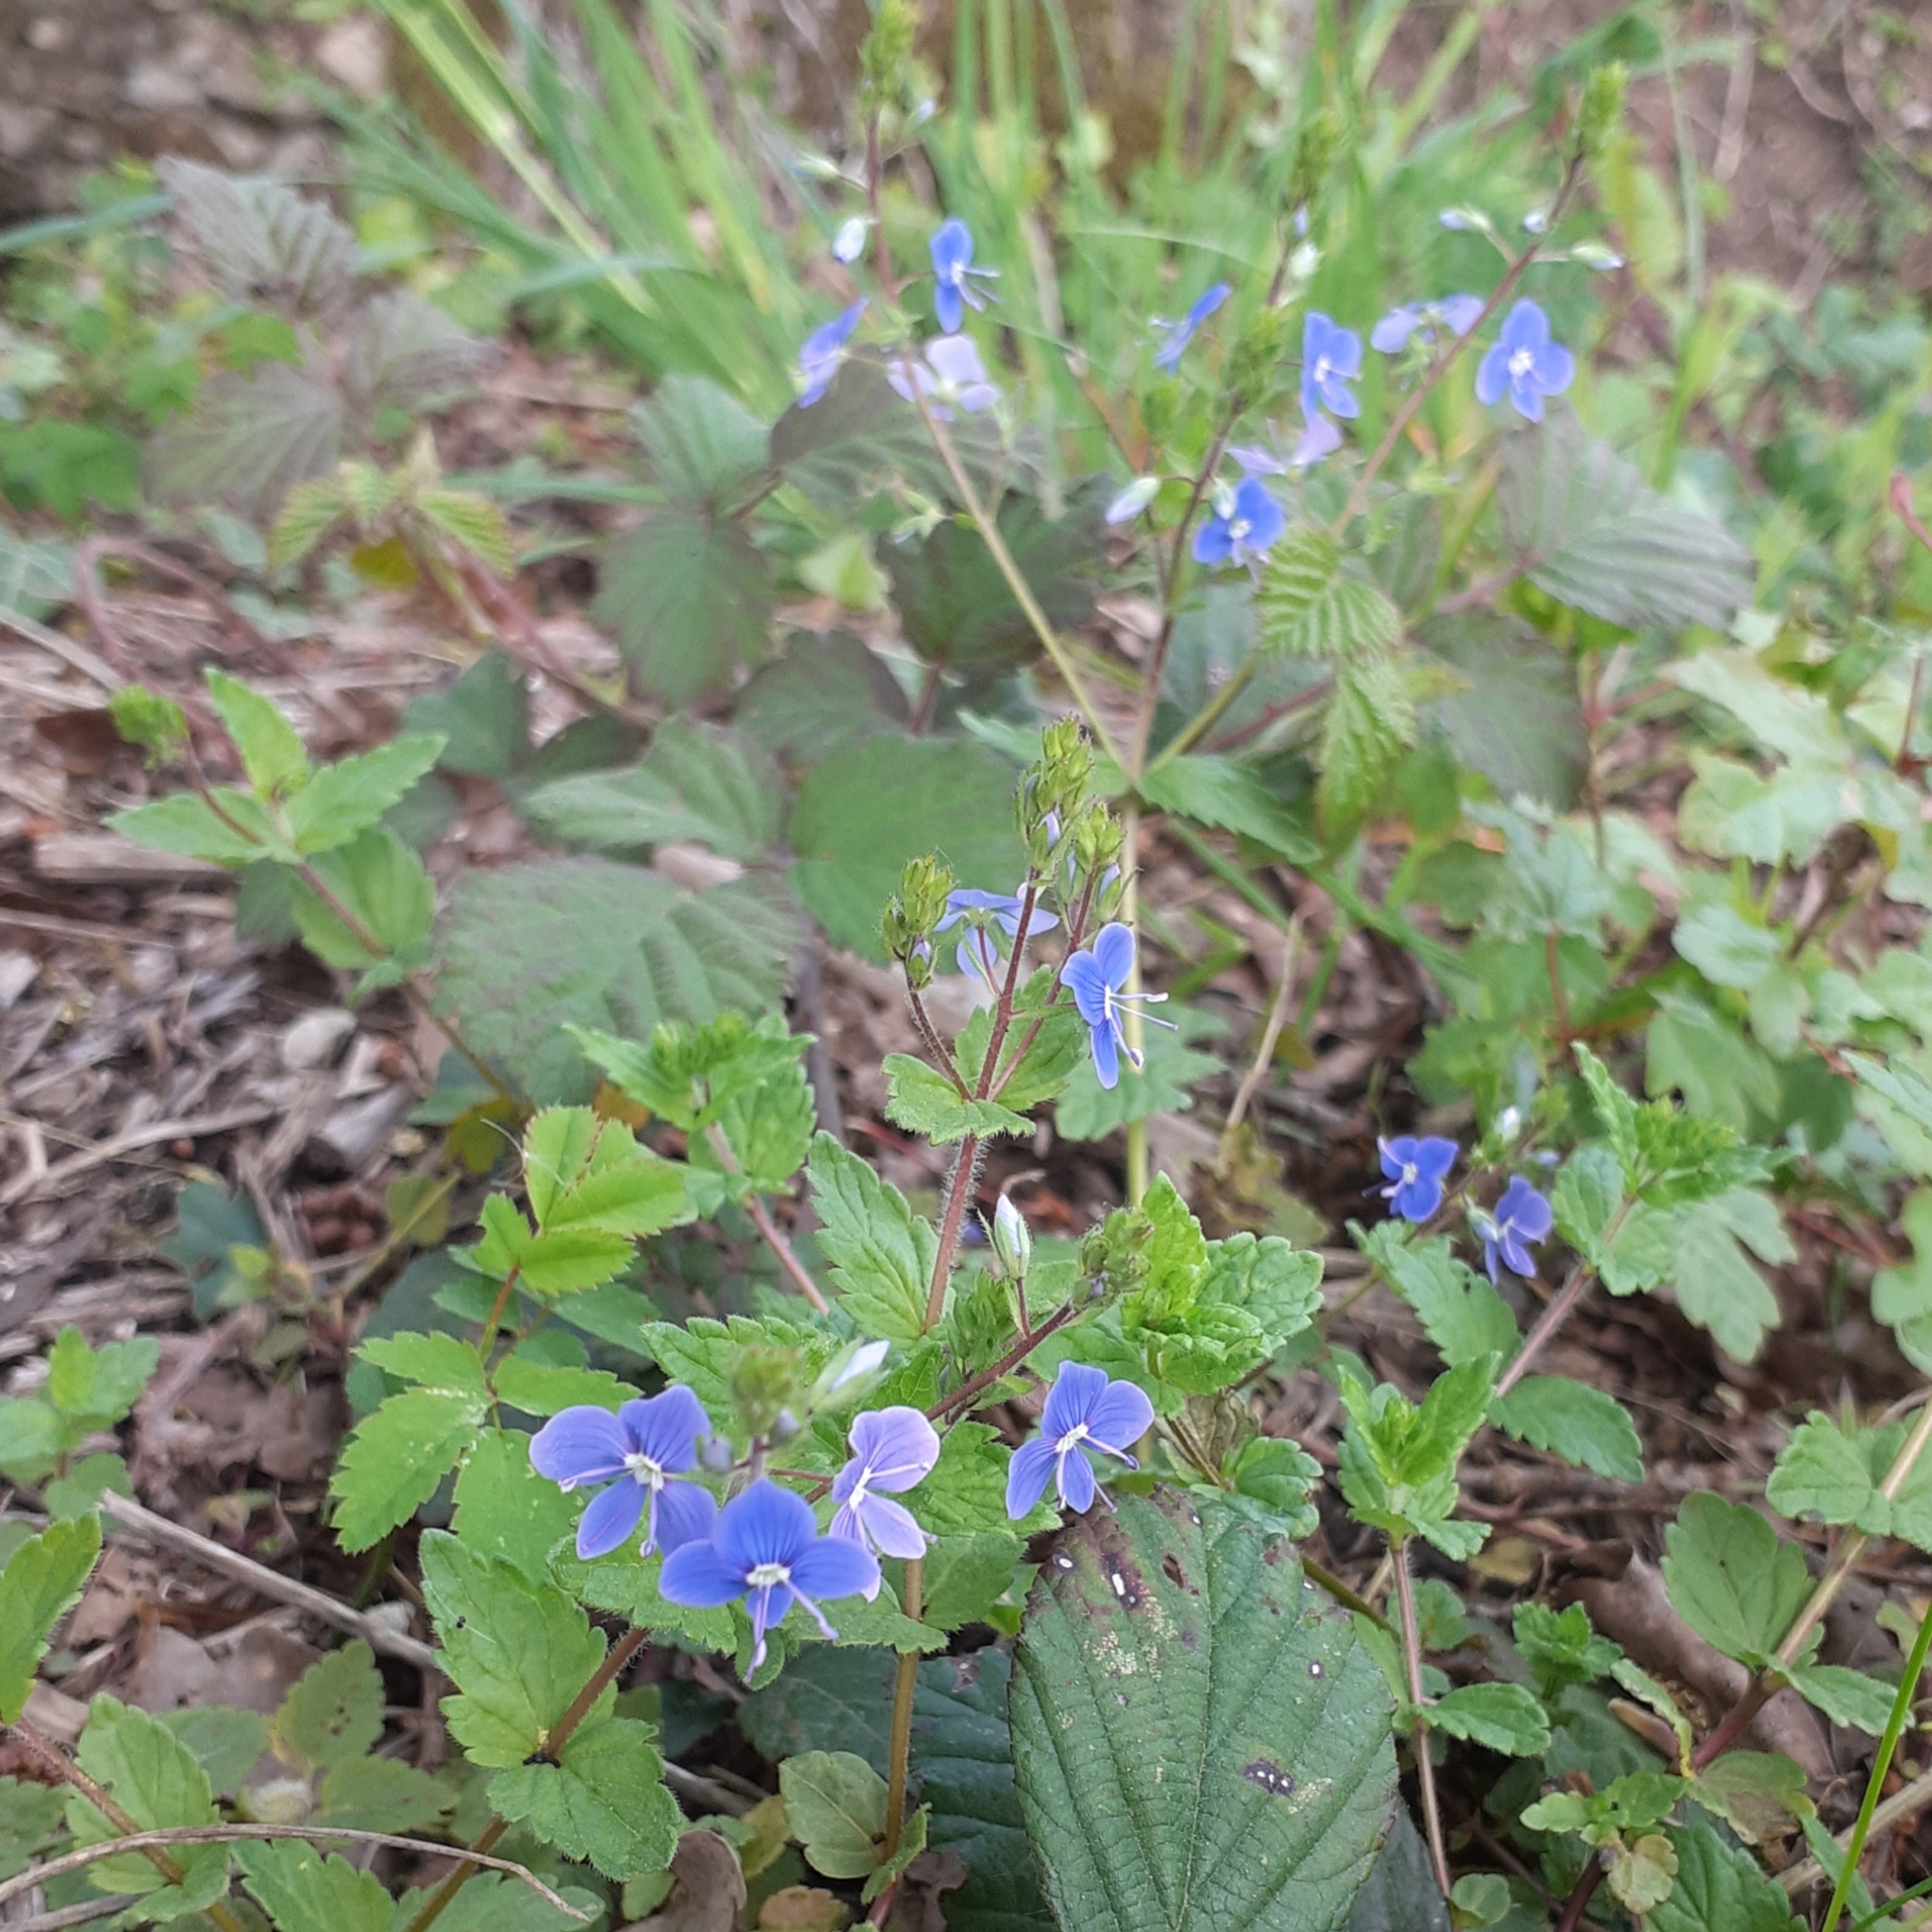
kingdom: Plantae
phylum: Tracheophyta
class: Magnoliopsida
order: Lamiales
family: Plantaginaceae
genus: Veronica
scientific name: Veronica chamaedrys
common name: Germander speedwell
